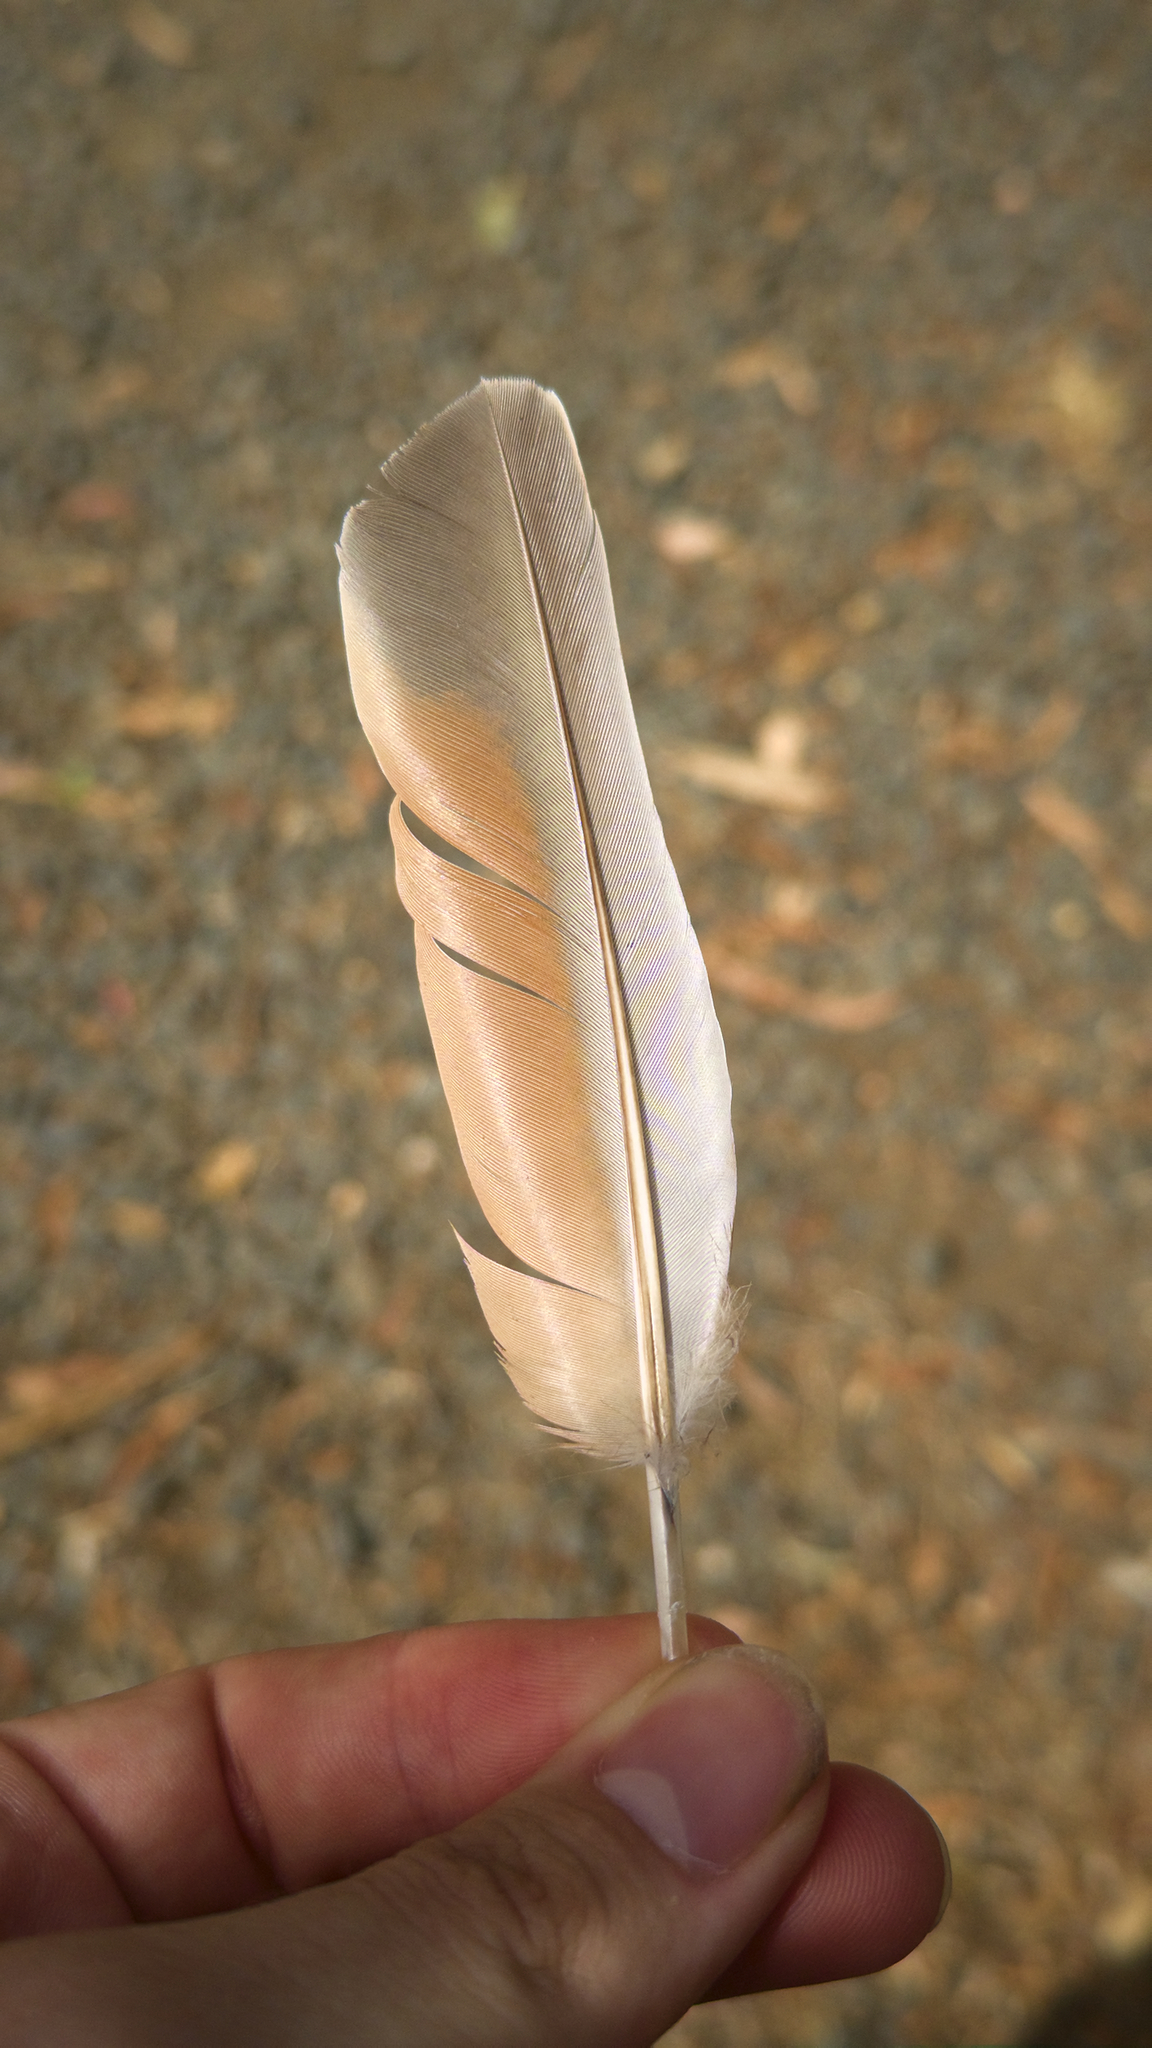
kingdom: Animalia
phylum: Chordata
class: Aves
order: Columbiformes
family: Columbidae
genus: Phaps
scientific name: Phaps chalcoptera
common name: Common bronzewing
